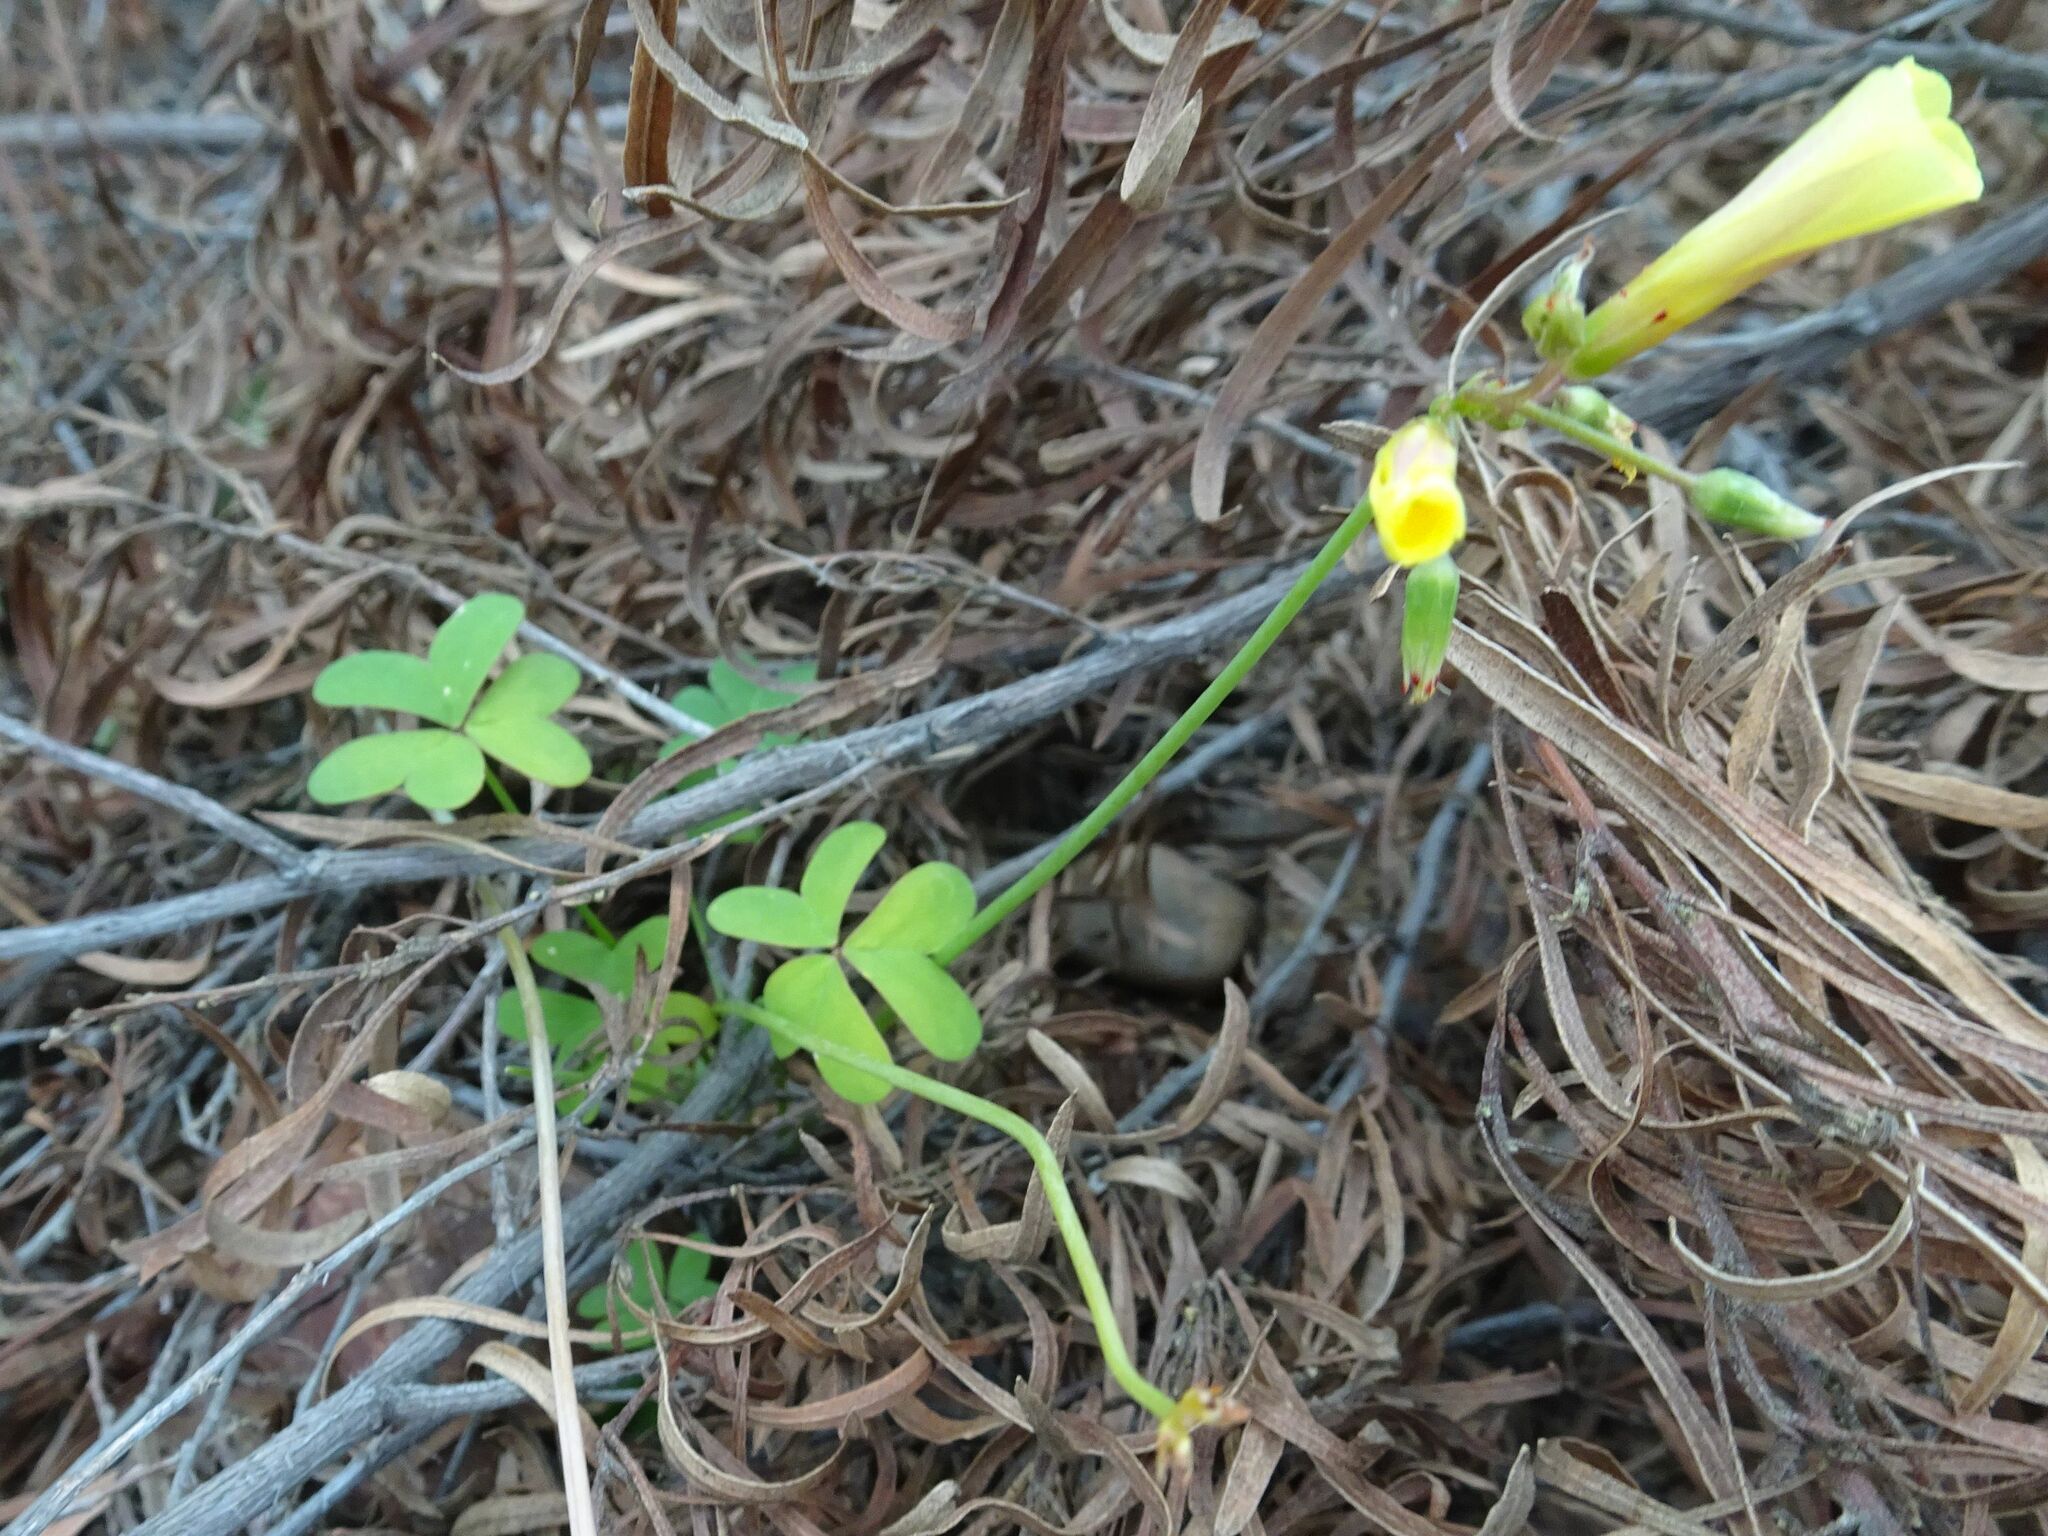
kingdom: Plantae
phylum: Tracheophyta
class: Magnoliopsida
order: Oxalidales
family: Oxalidaceae
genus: Oxalis
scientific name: Oxalis pes-caprae
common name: Bermuda-buttercup
